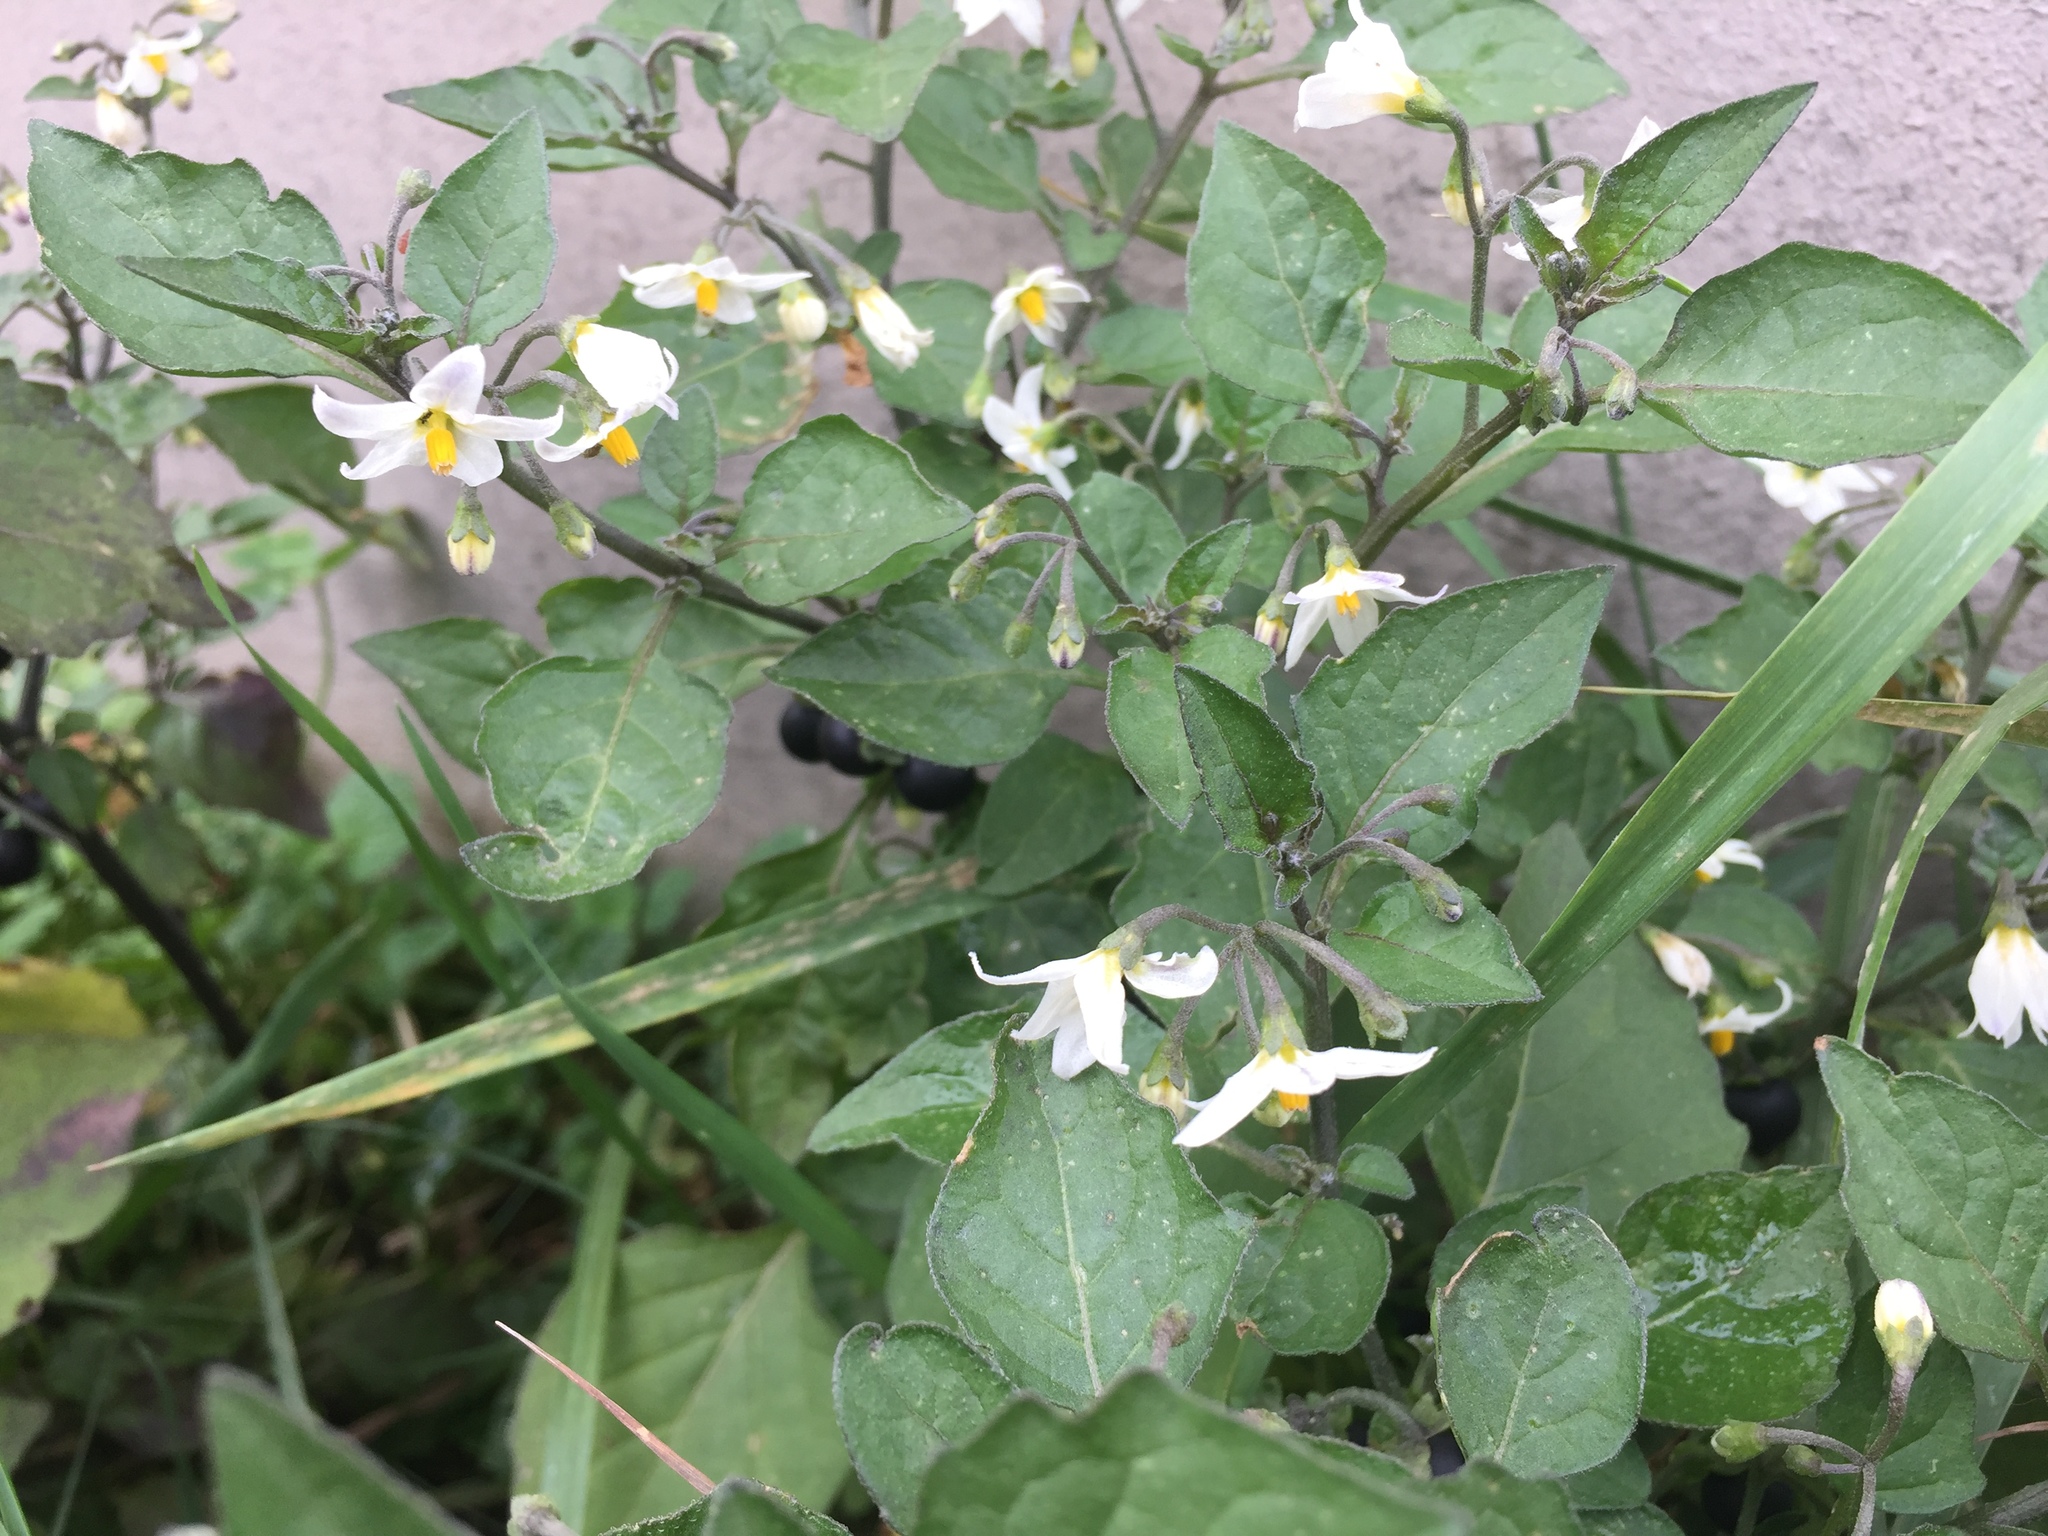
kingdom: Plantae
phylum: Tracheophyta
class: Magnoliopsida
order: Solanales
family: Solanaceae
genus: Solanum
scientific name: Solanum nigrum
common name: Black nightshade
